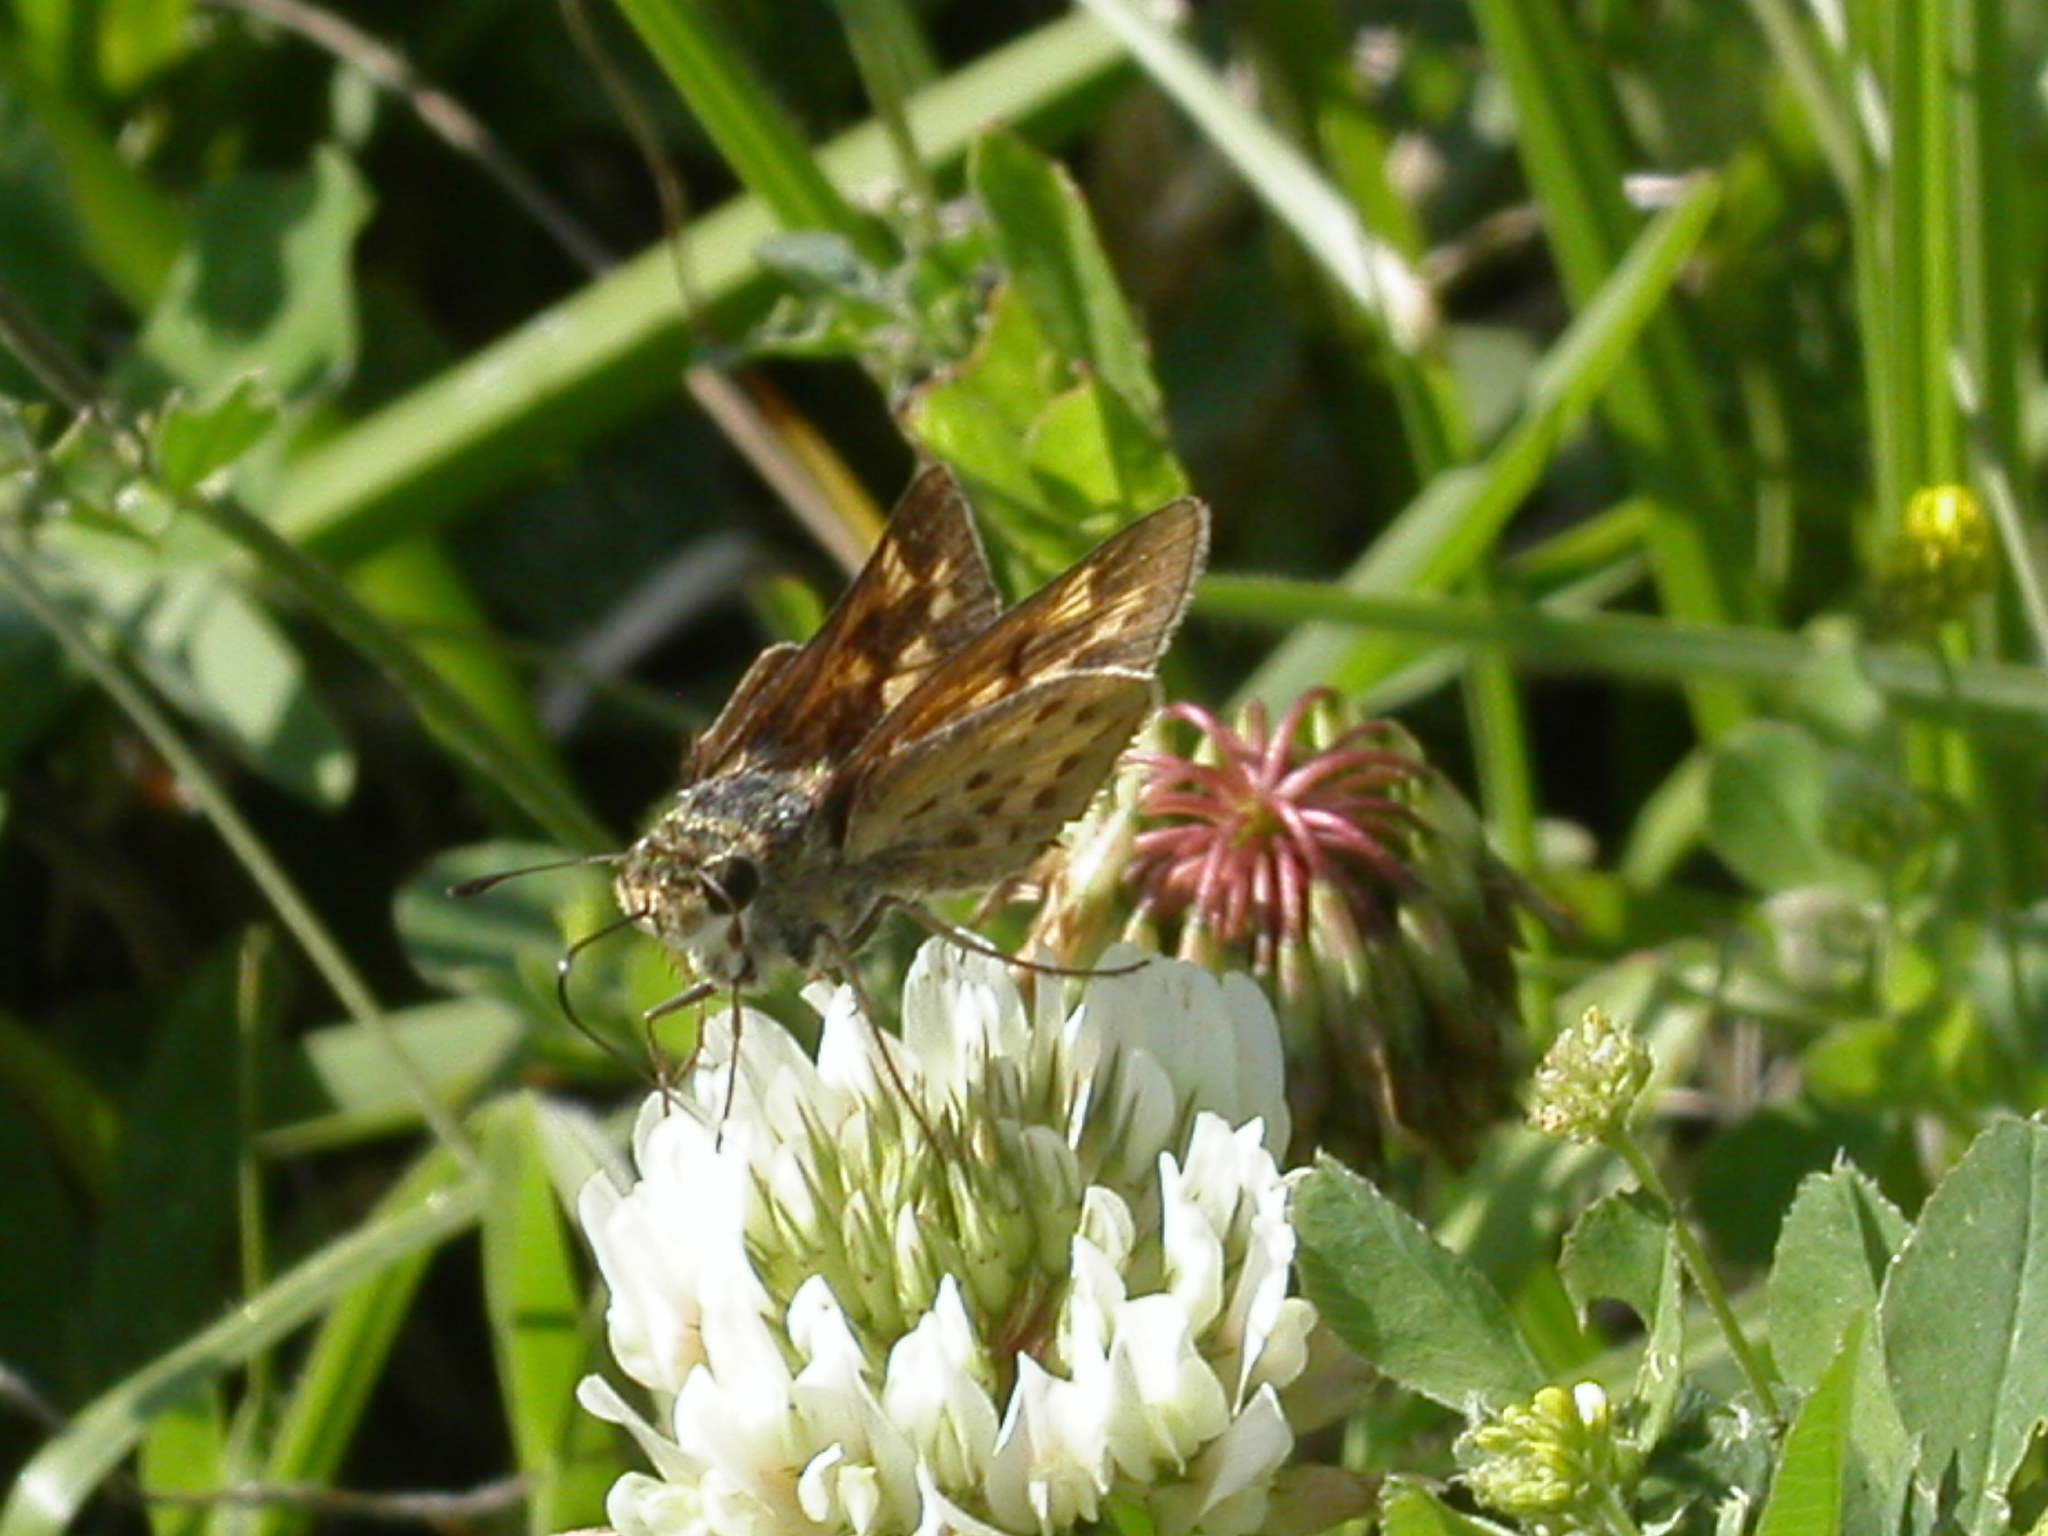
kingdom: Animalia
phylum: Arthropoda
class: Insecta
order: Lepidoptera
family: Hesperiidae
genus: Hylephila
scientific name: Hylephila phyleus
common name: Fiery skipper
